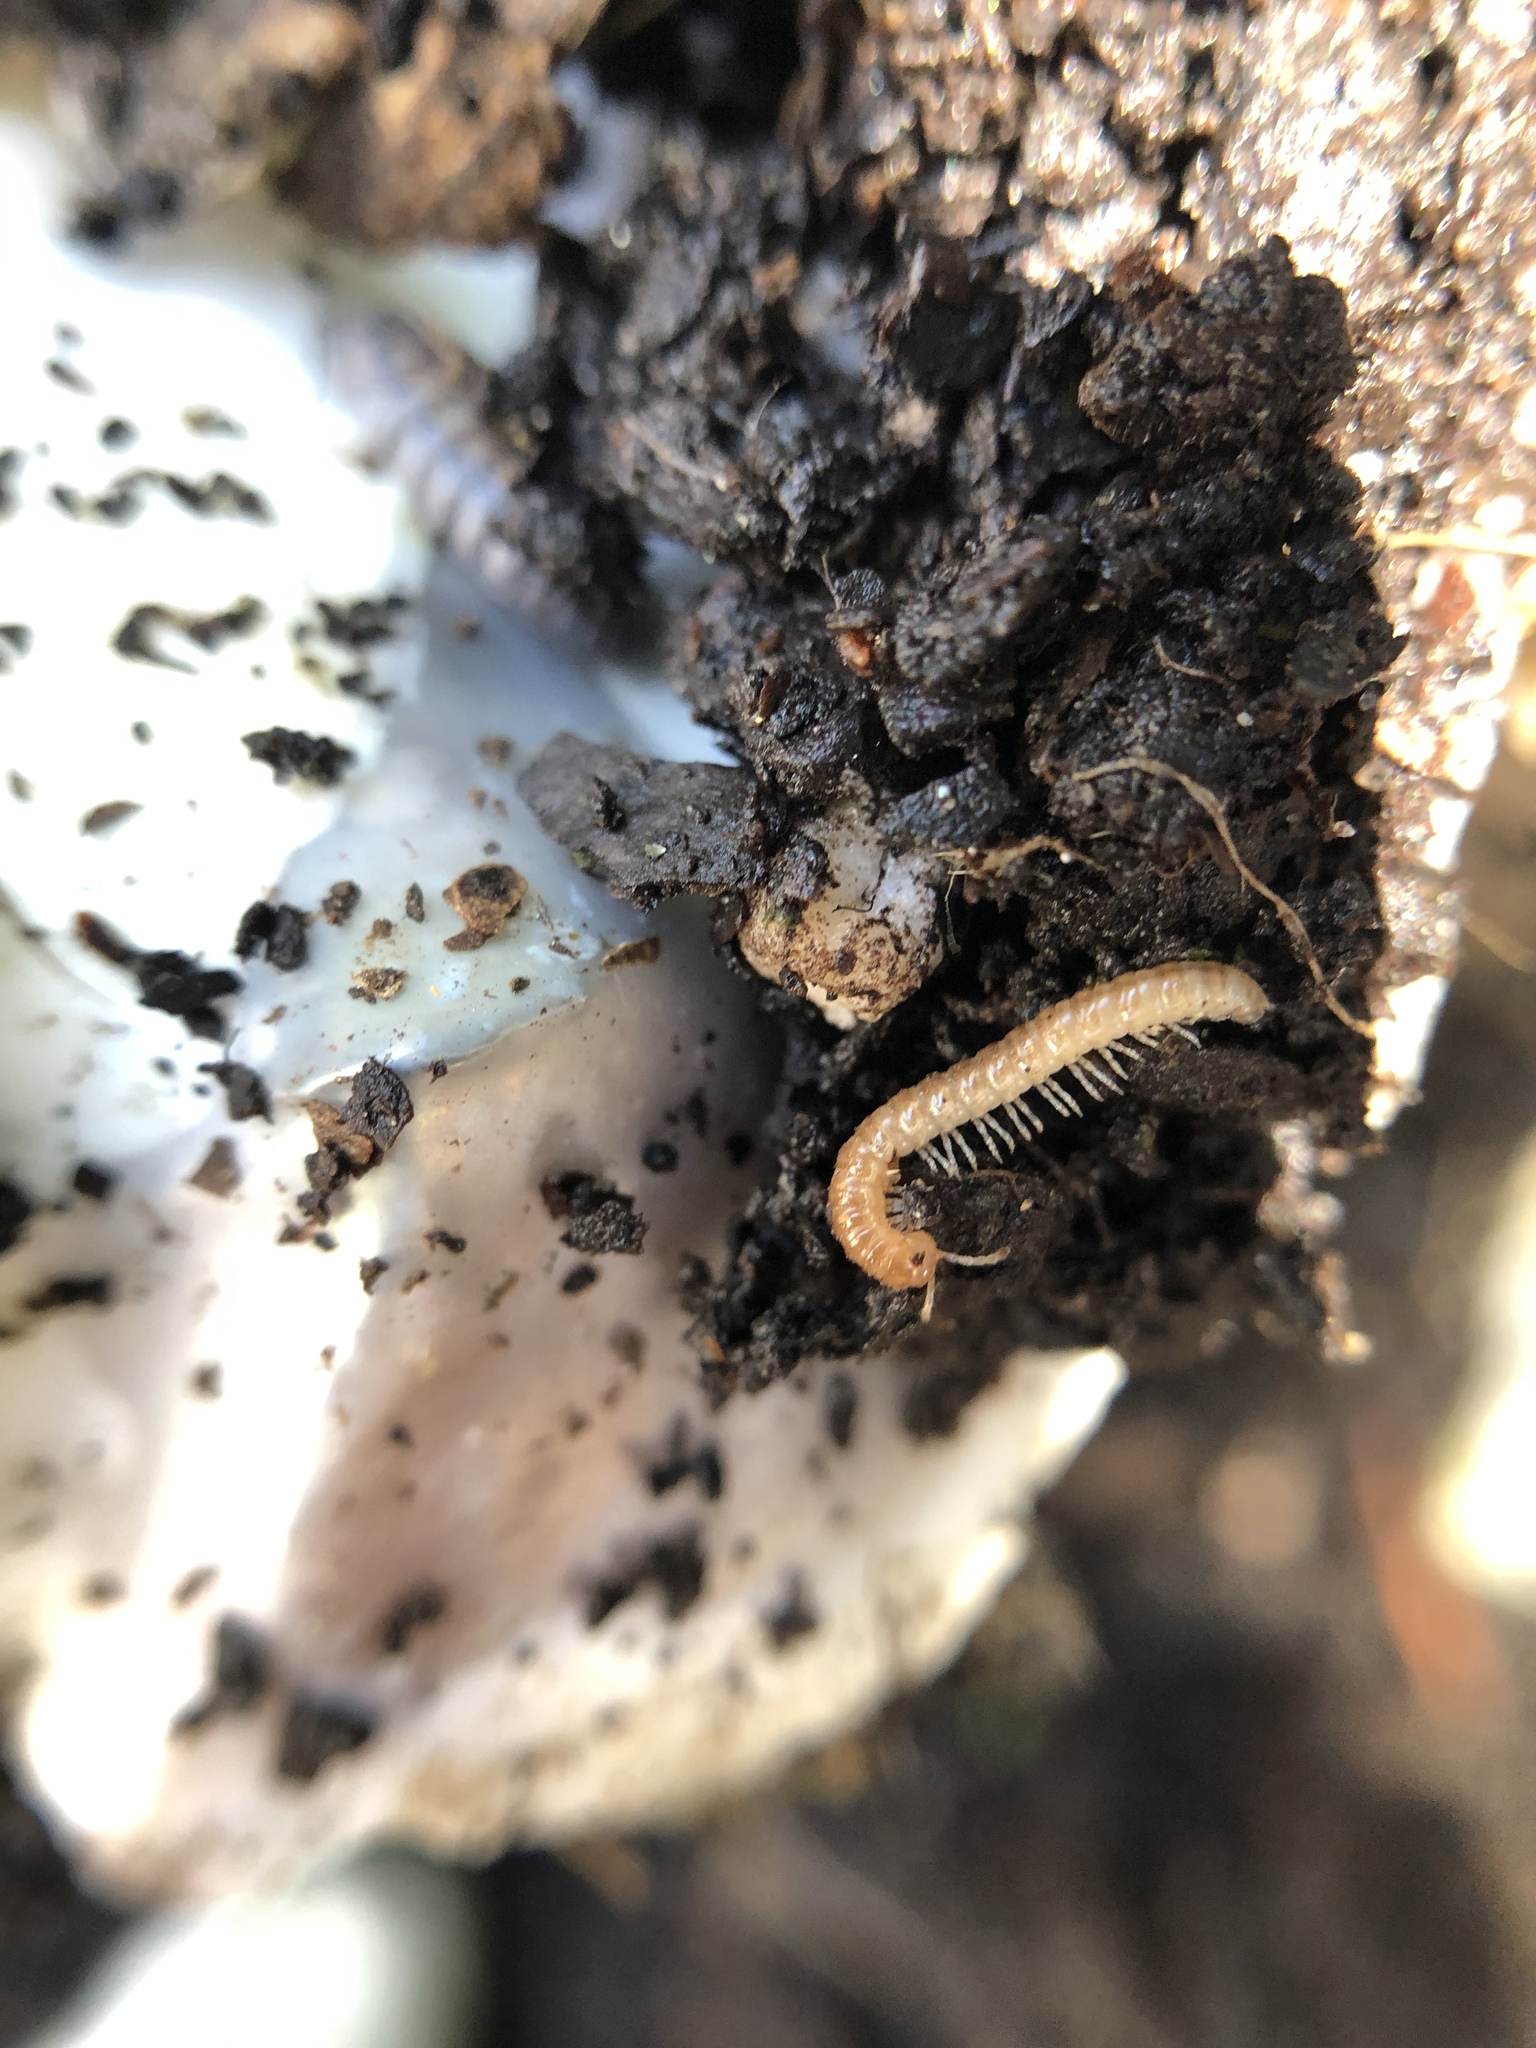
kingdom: Animalia
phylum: Arthropoda
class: Diplopoda
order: Polydesmida
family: Paradoxosomatidae
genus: Oxidus
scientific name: Oxidus gracilis
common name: Greenhouse millipede
